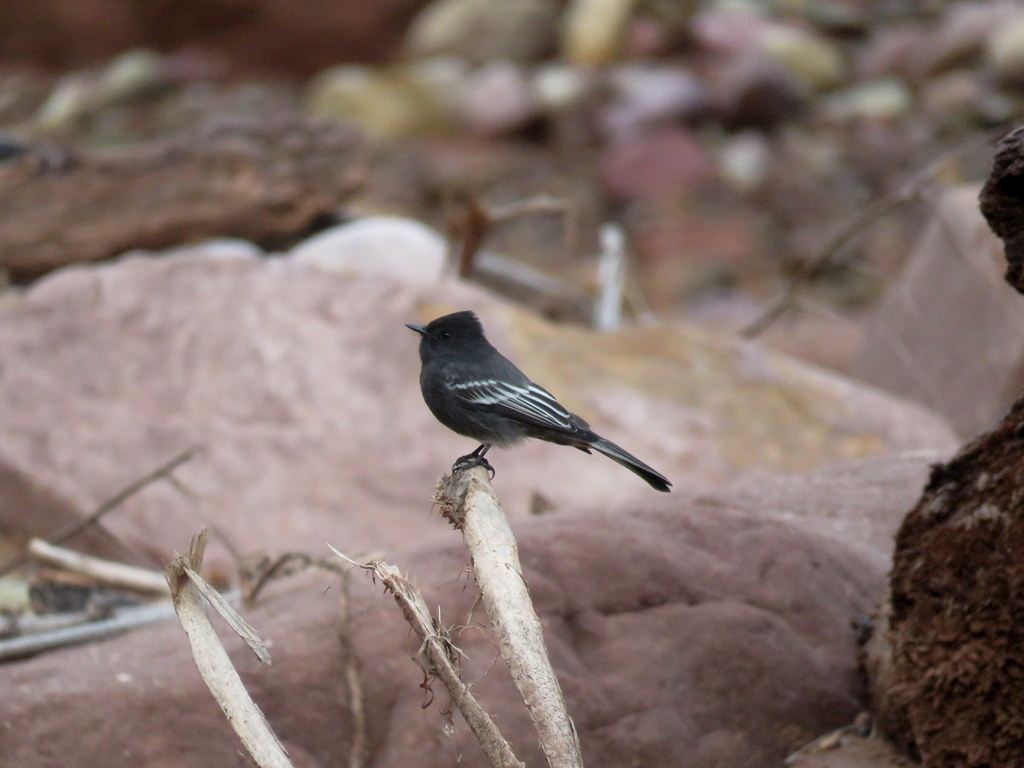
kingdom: Animalia
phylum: Chordata
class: Aves
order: Passeriformes
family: Tyrannidae
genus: Sayornis
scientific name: Sayornis nigricans
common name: Black phoebe
